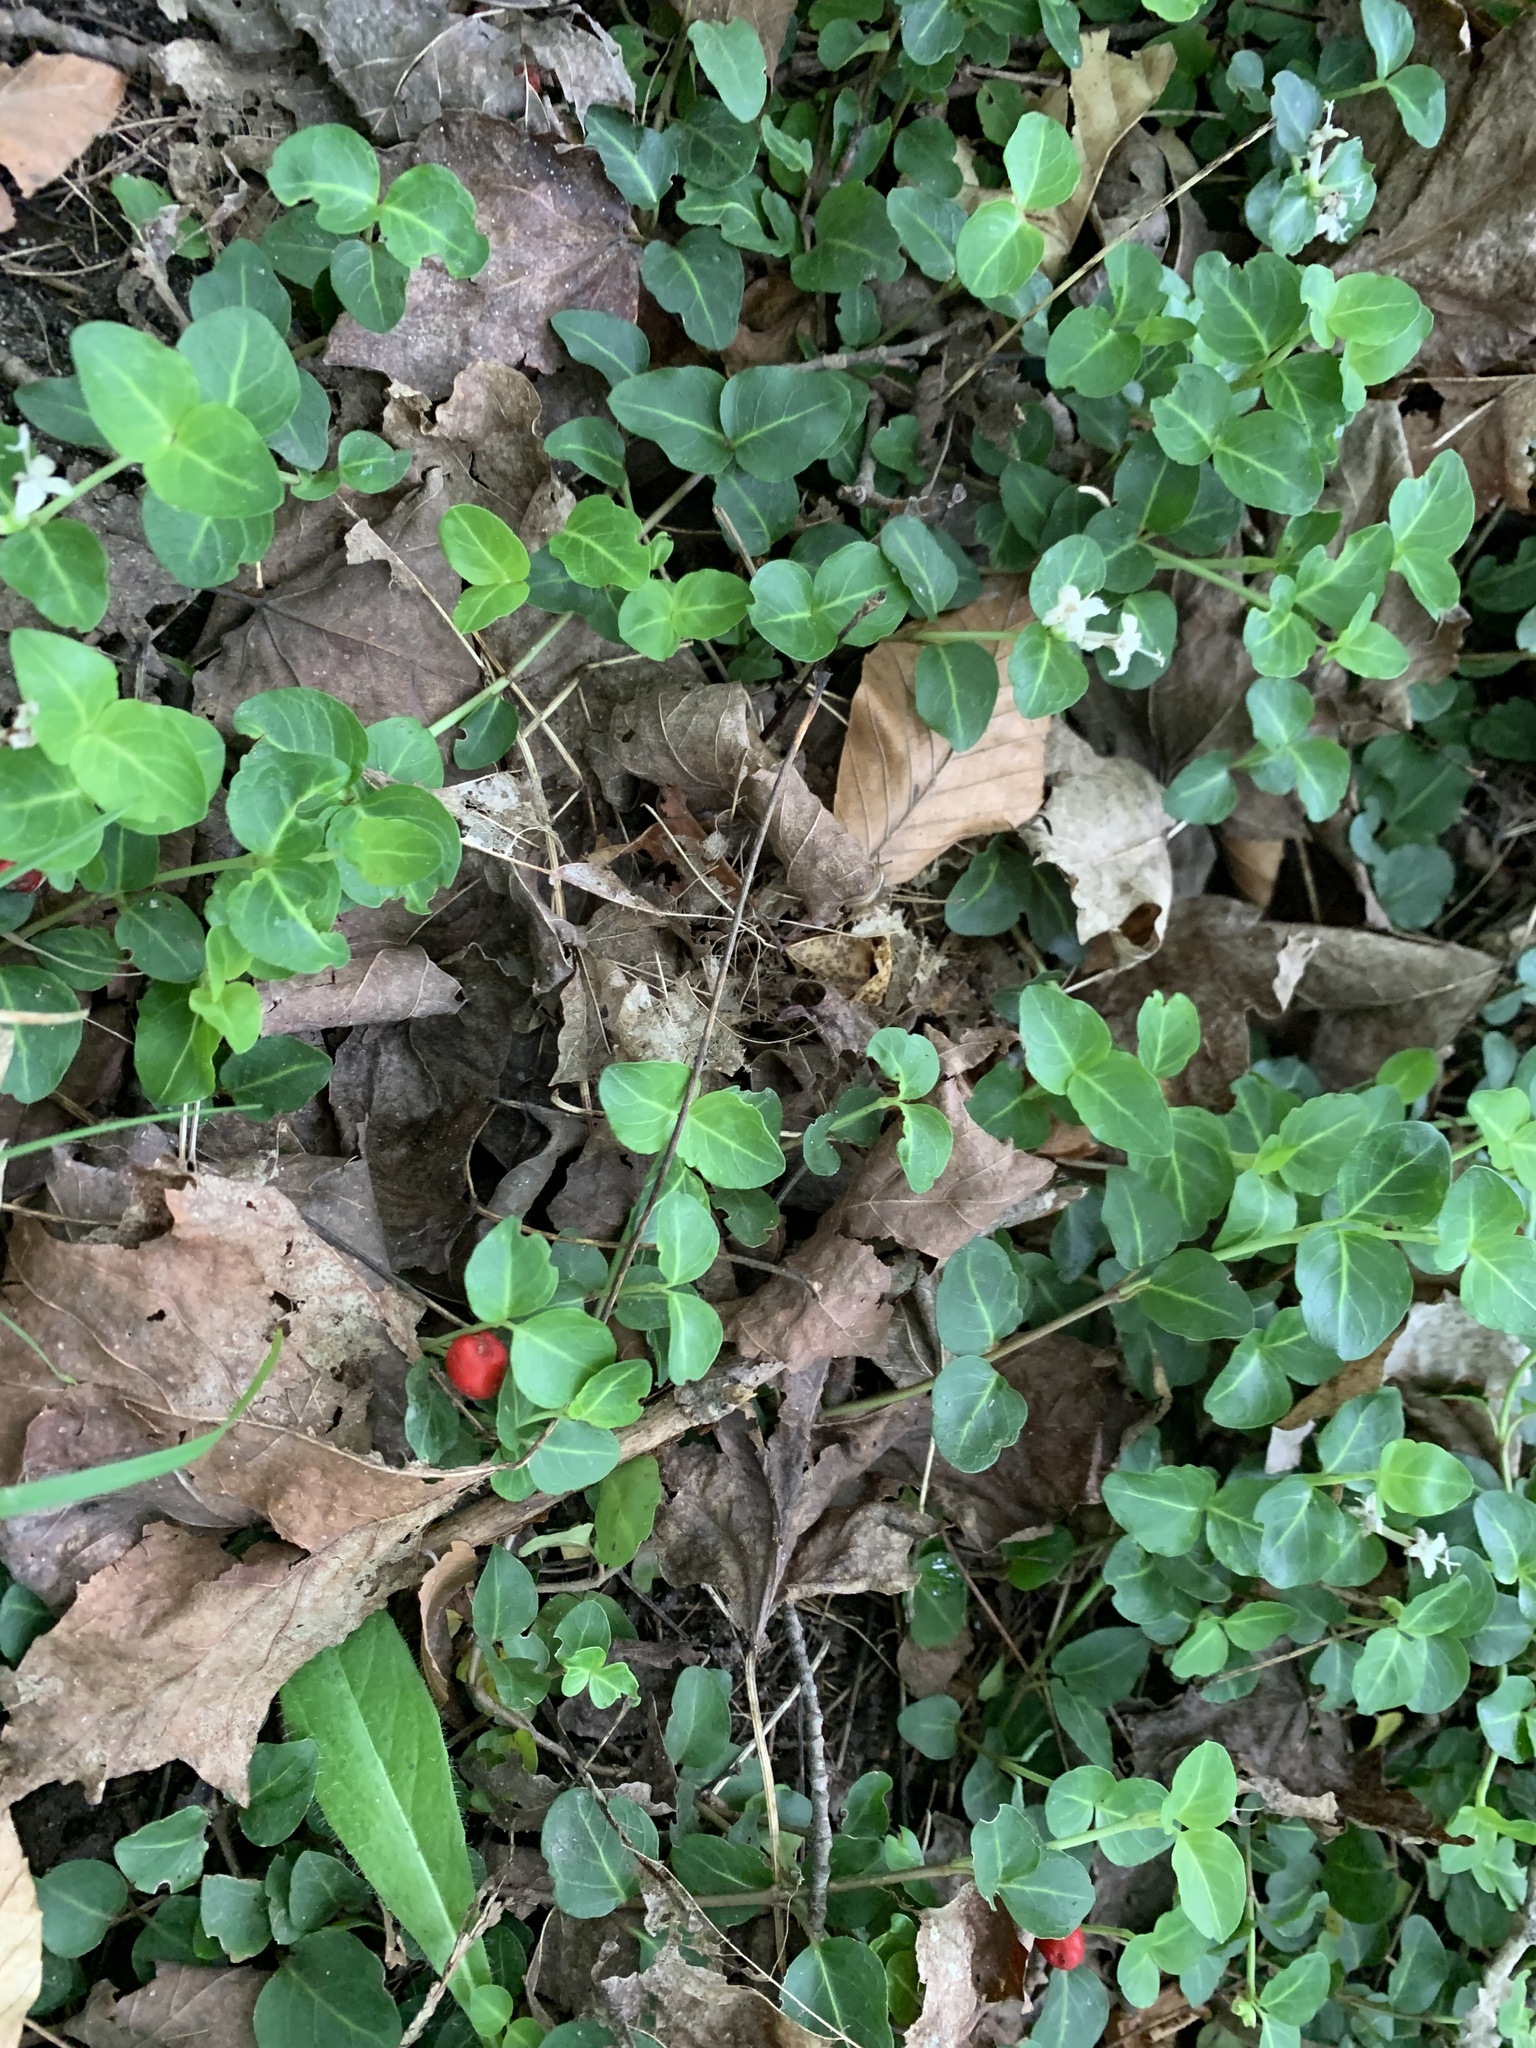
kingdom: Plantae
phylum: Tracheophyta
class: Magnoliopsida
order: Gentianales
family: Rubiaceae
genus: Mitchella
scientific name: Mitchella repens
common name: Partridge-berry
